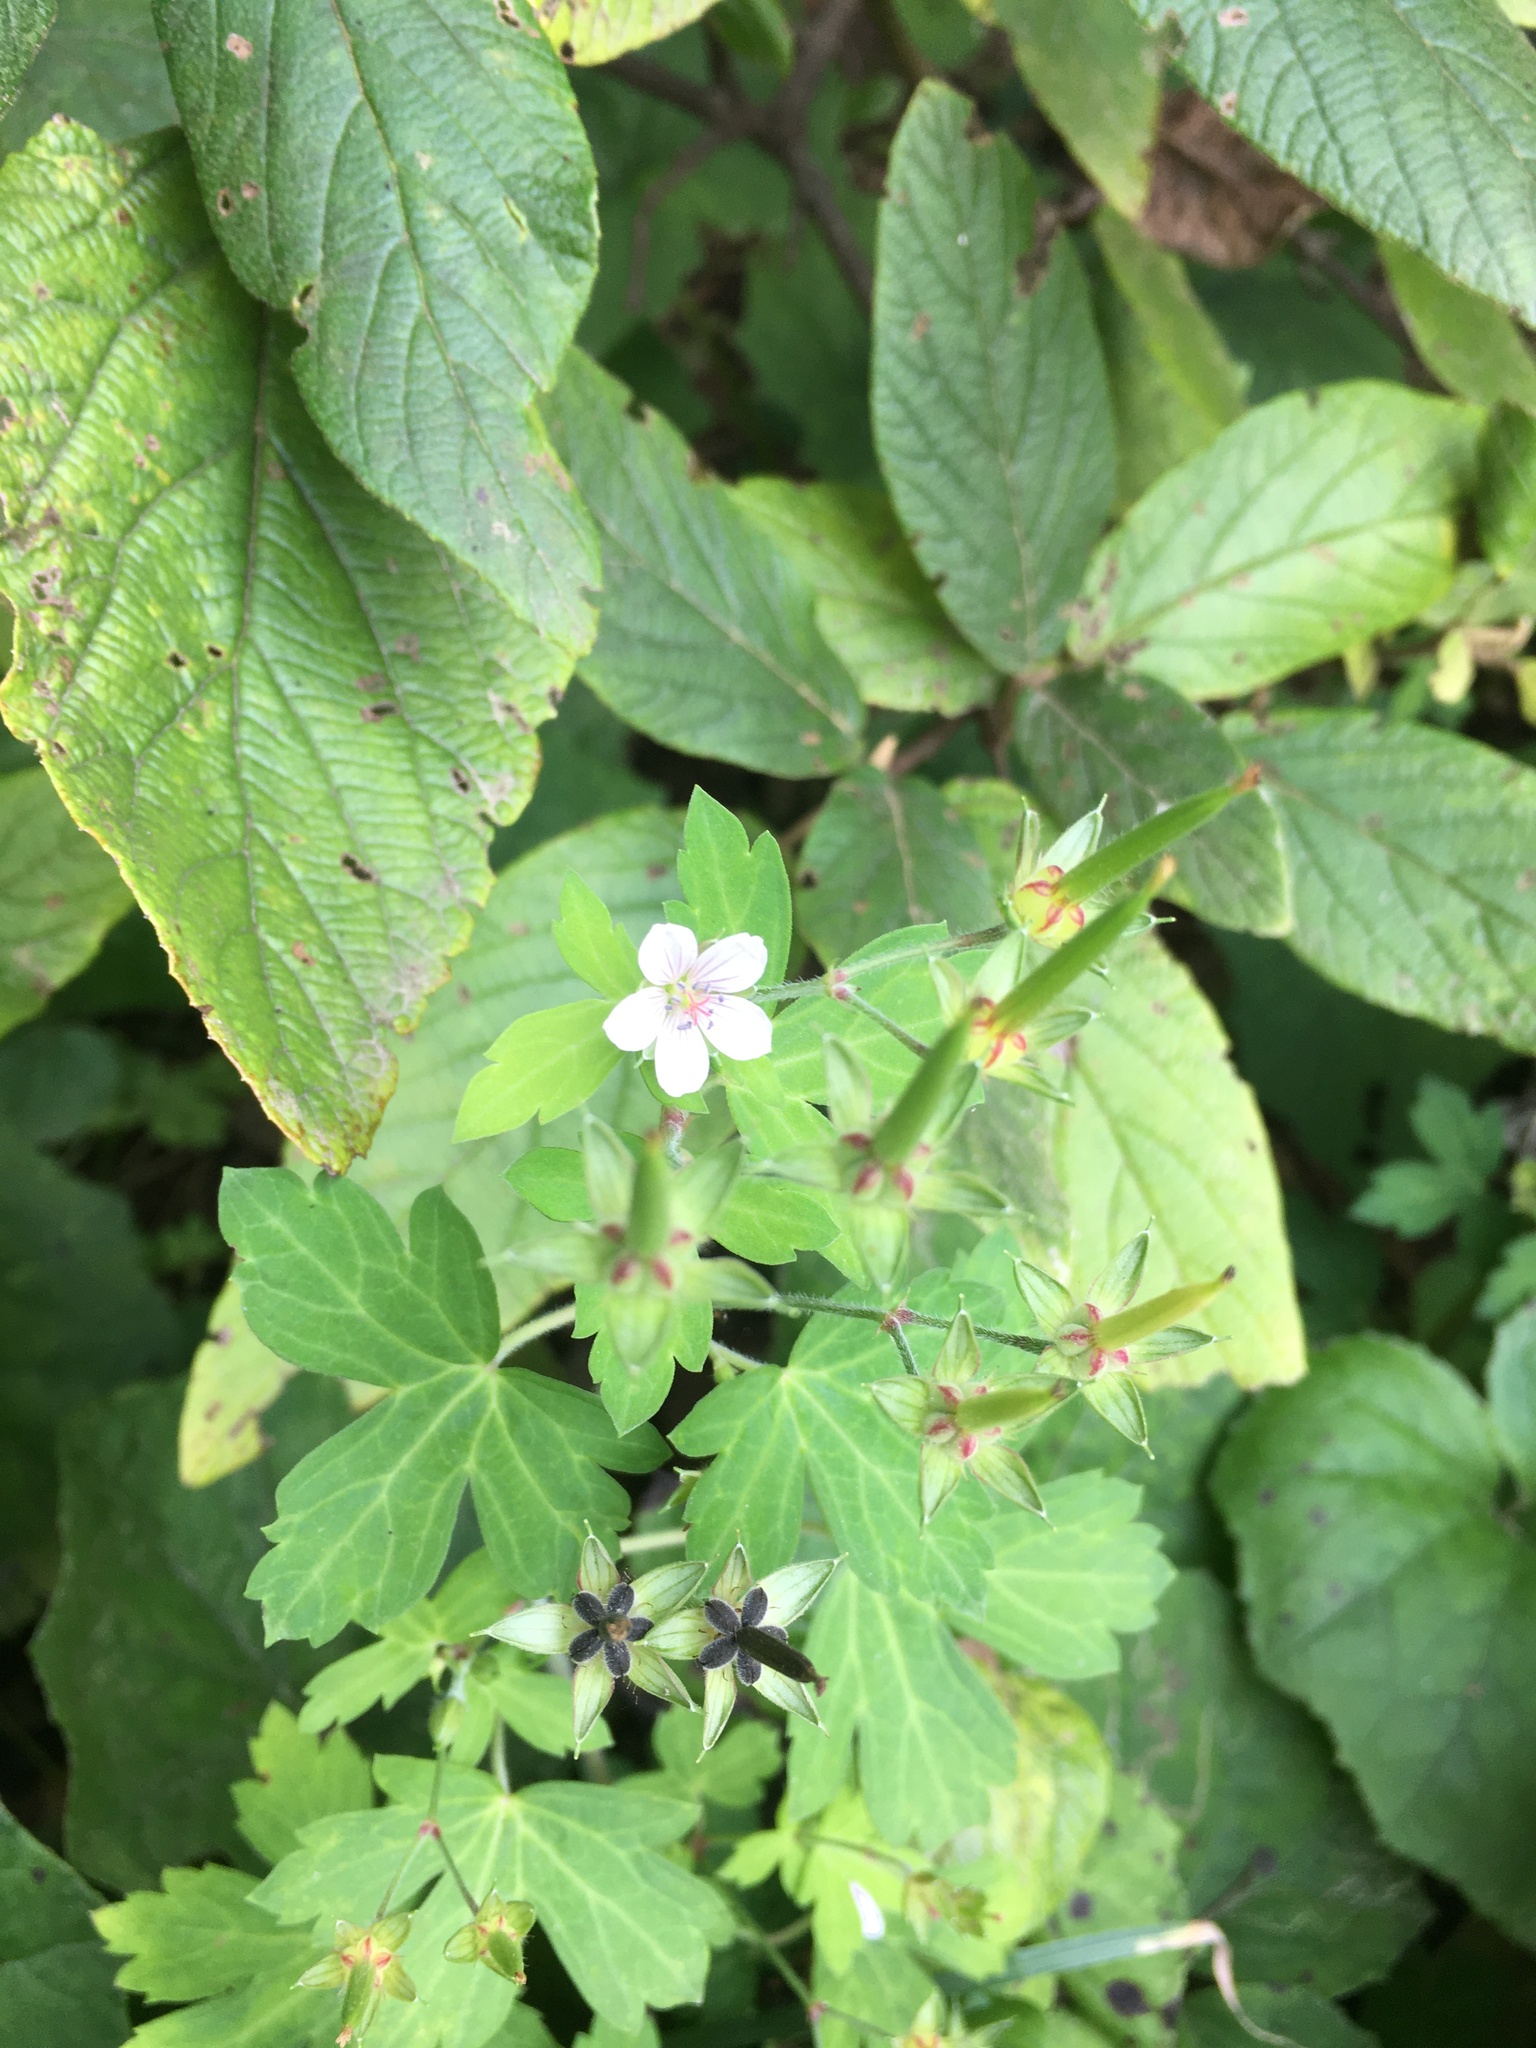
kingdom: Plantae
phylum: Tracheophyta
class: Magnoliopsida
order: Geraniales
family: Geraniaceae
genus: Geranium
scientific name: Geranium thunbergii
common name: Dewdrop crane's-bill
